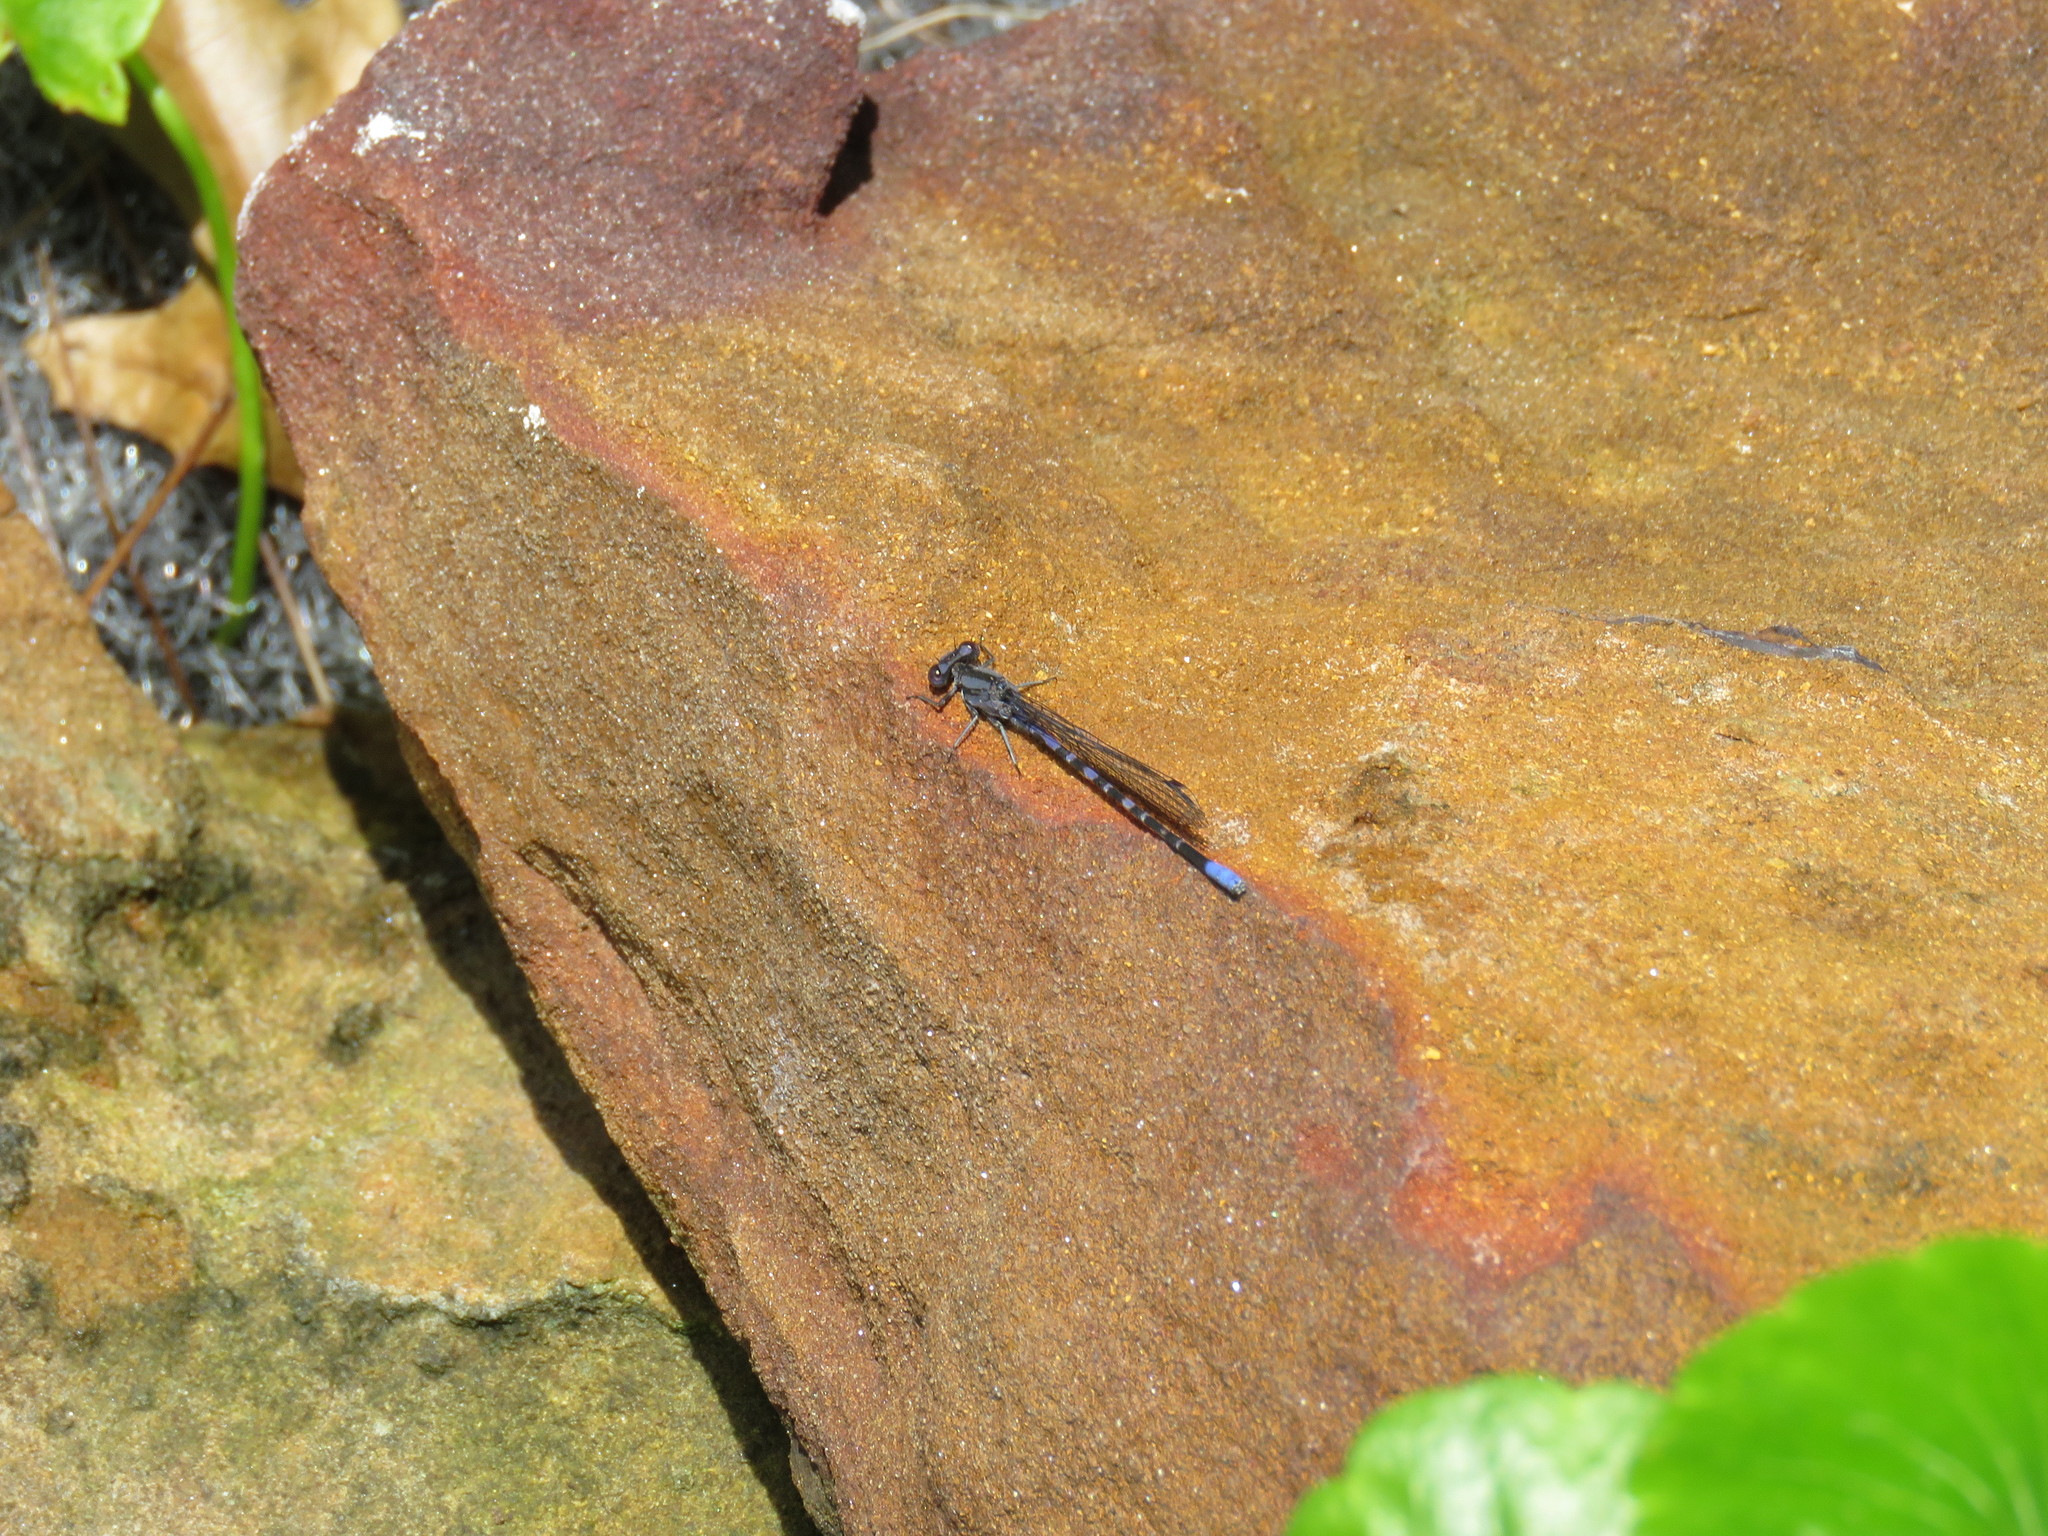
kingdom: Animalia
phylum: Arthropoda
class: Insecta
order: Odonata
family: Coenagrionidae
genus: Argia
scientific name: Argia immunda
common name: Kiowa dancer
